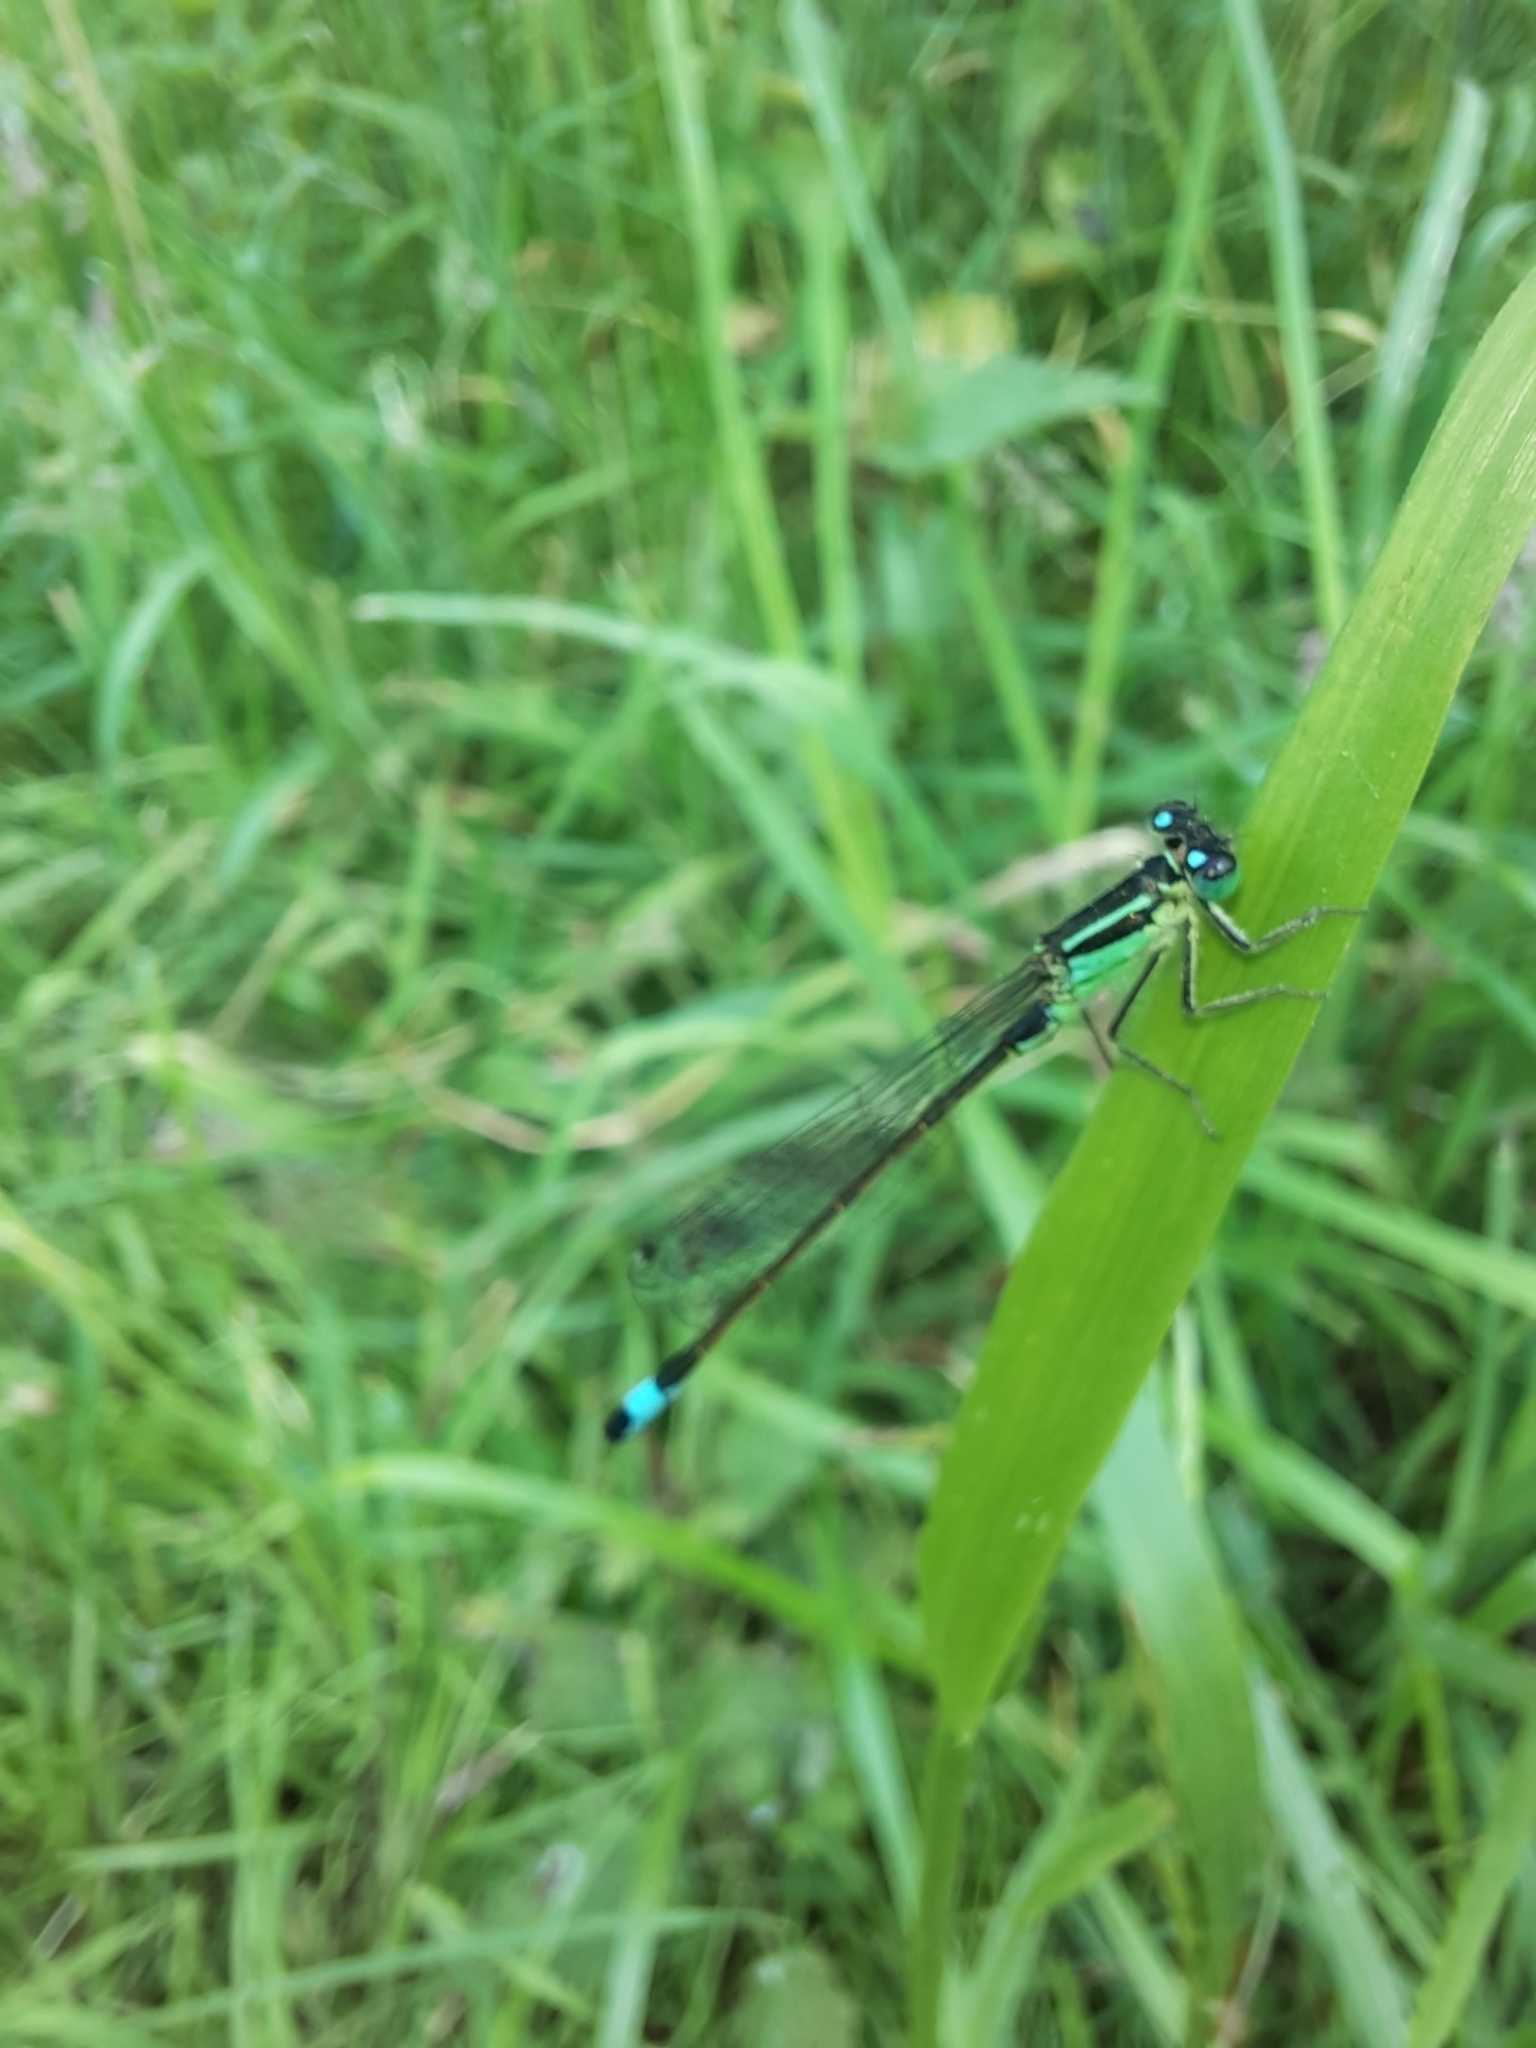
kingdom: Animalia
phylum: Arthropoda
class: Insecta
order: Odonata
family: Coenagrionidae
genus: Ischnura
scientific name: Ischnura elegans
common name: Blue-tailed damselfly
